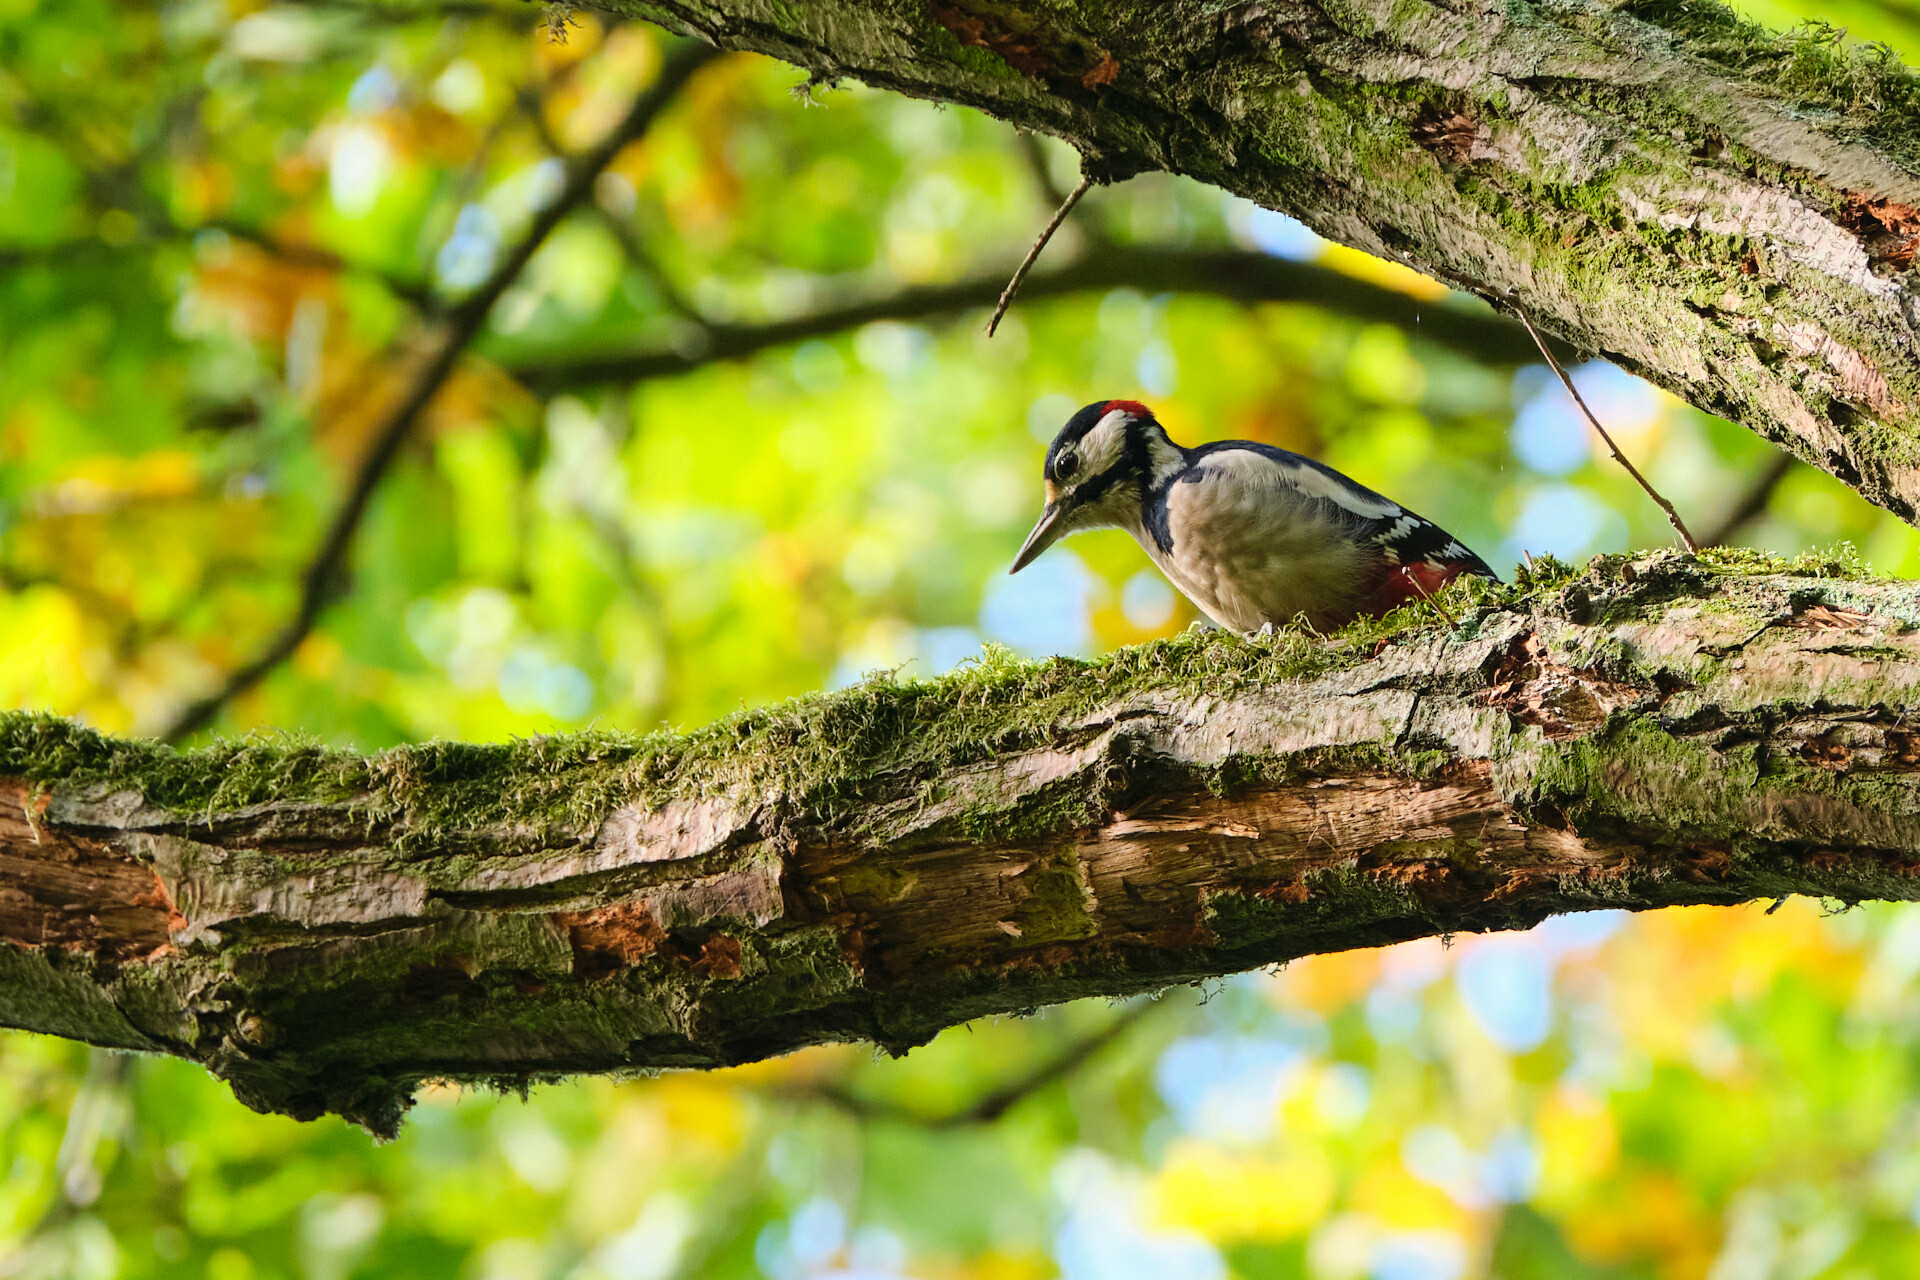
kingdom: Animalia
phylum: Chordata
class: Aves
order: Piciformes
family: Picidae
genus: Dendrocopos
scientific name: Dendrocopos major
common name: Great spotted woodpecker
